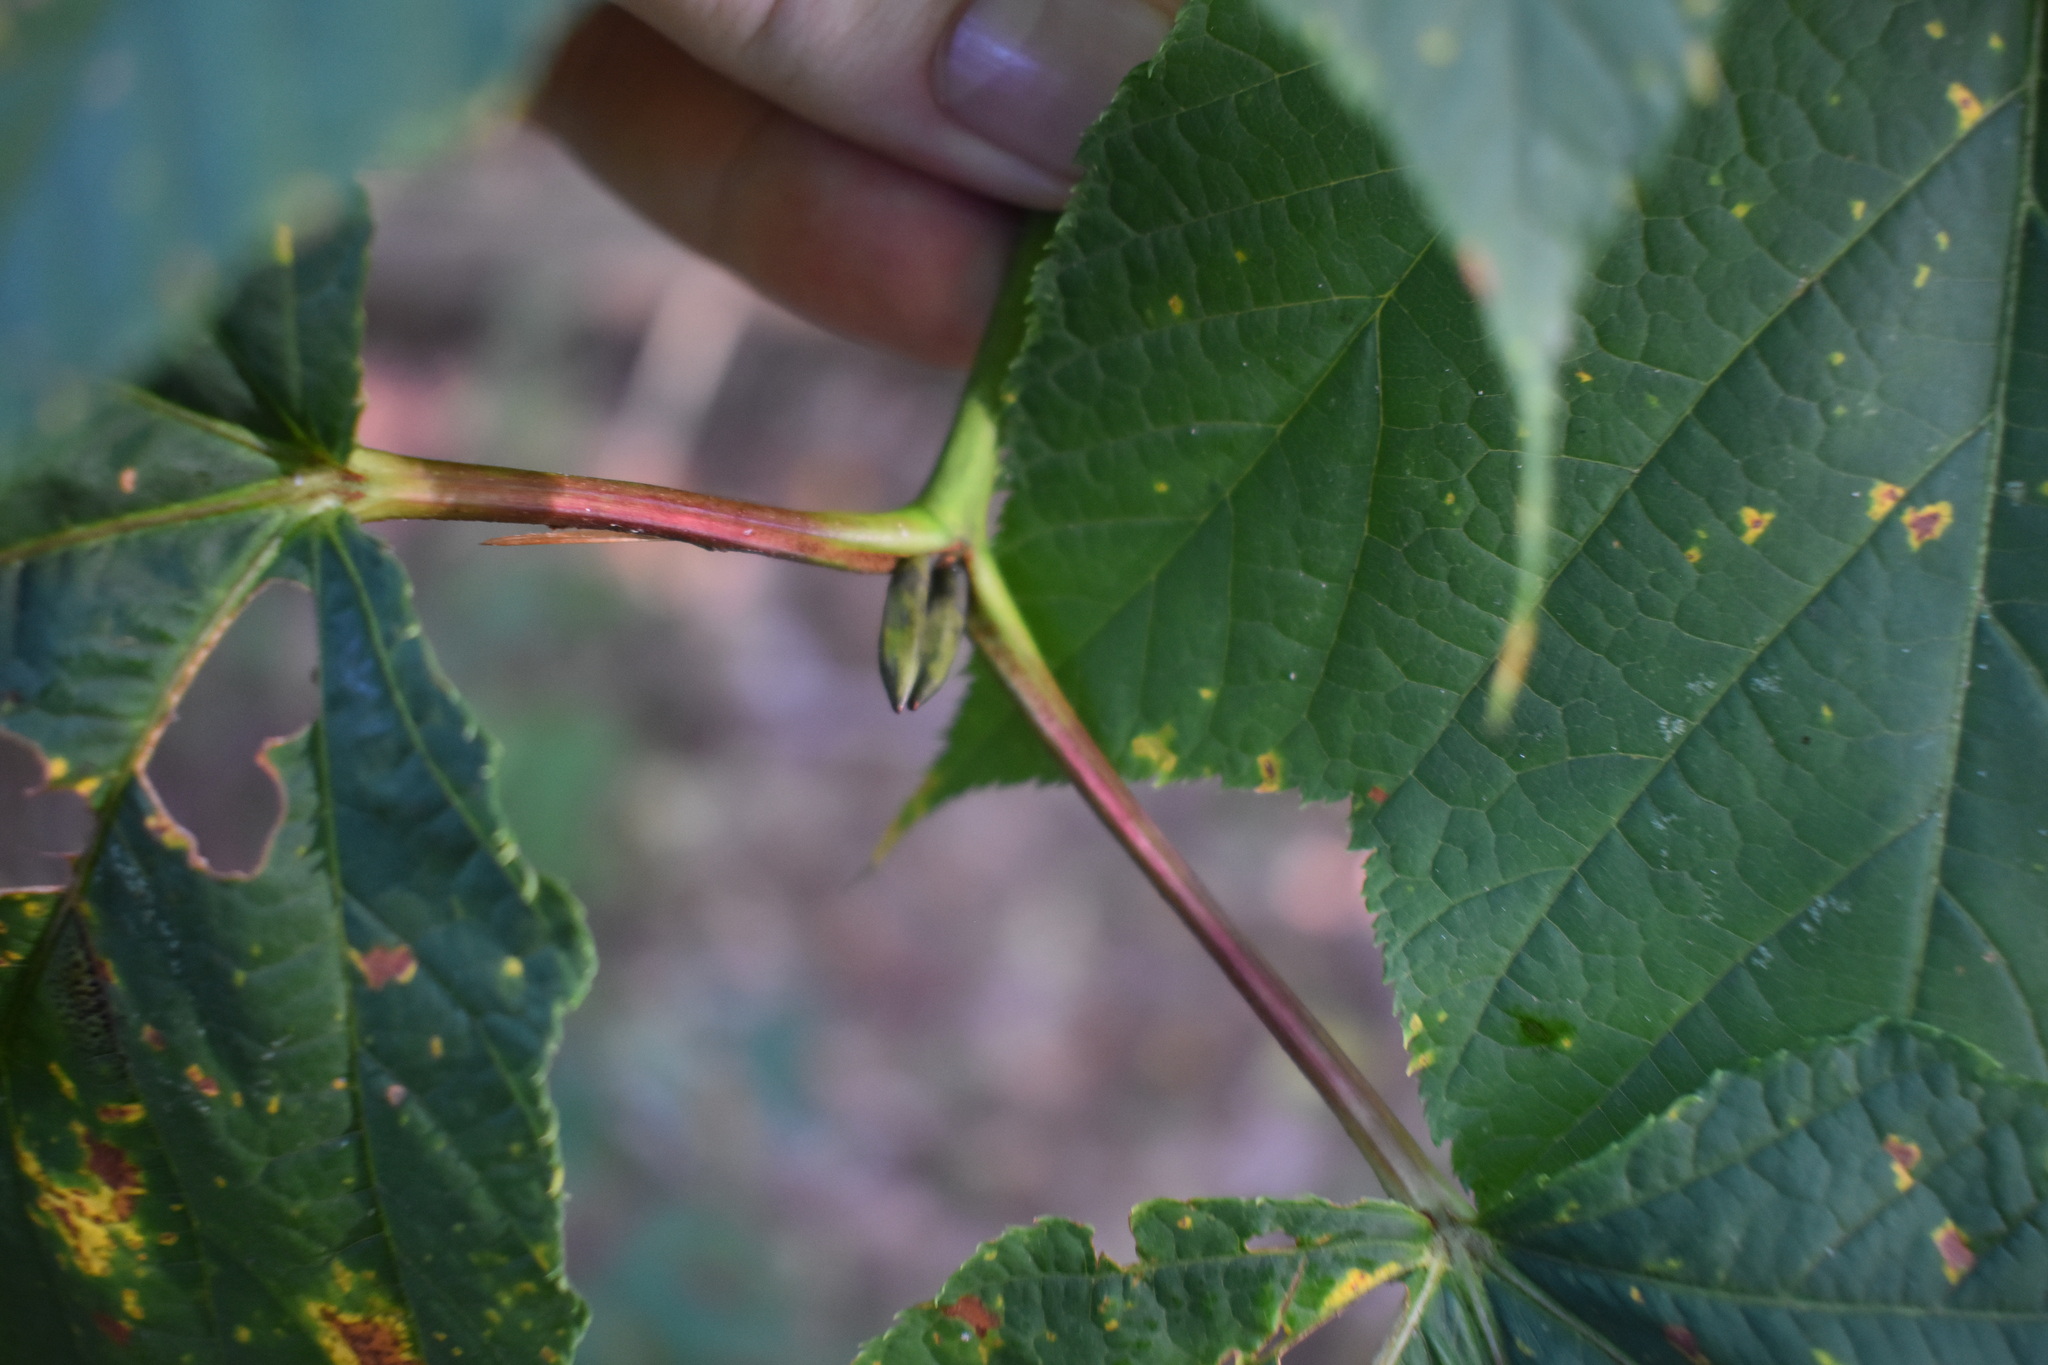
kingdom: Plantae
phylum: Tracheophyta
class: Magnoliopsida
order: Sapindales
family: Sapindaceae
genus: Acer
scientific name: Acer pensylvanicum
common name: Moosewood
